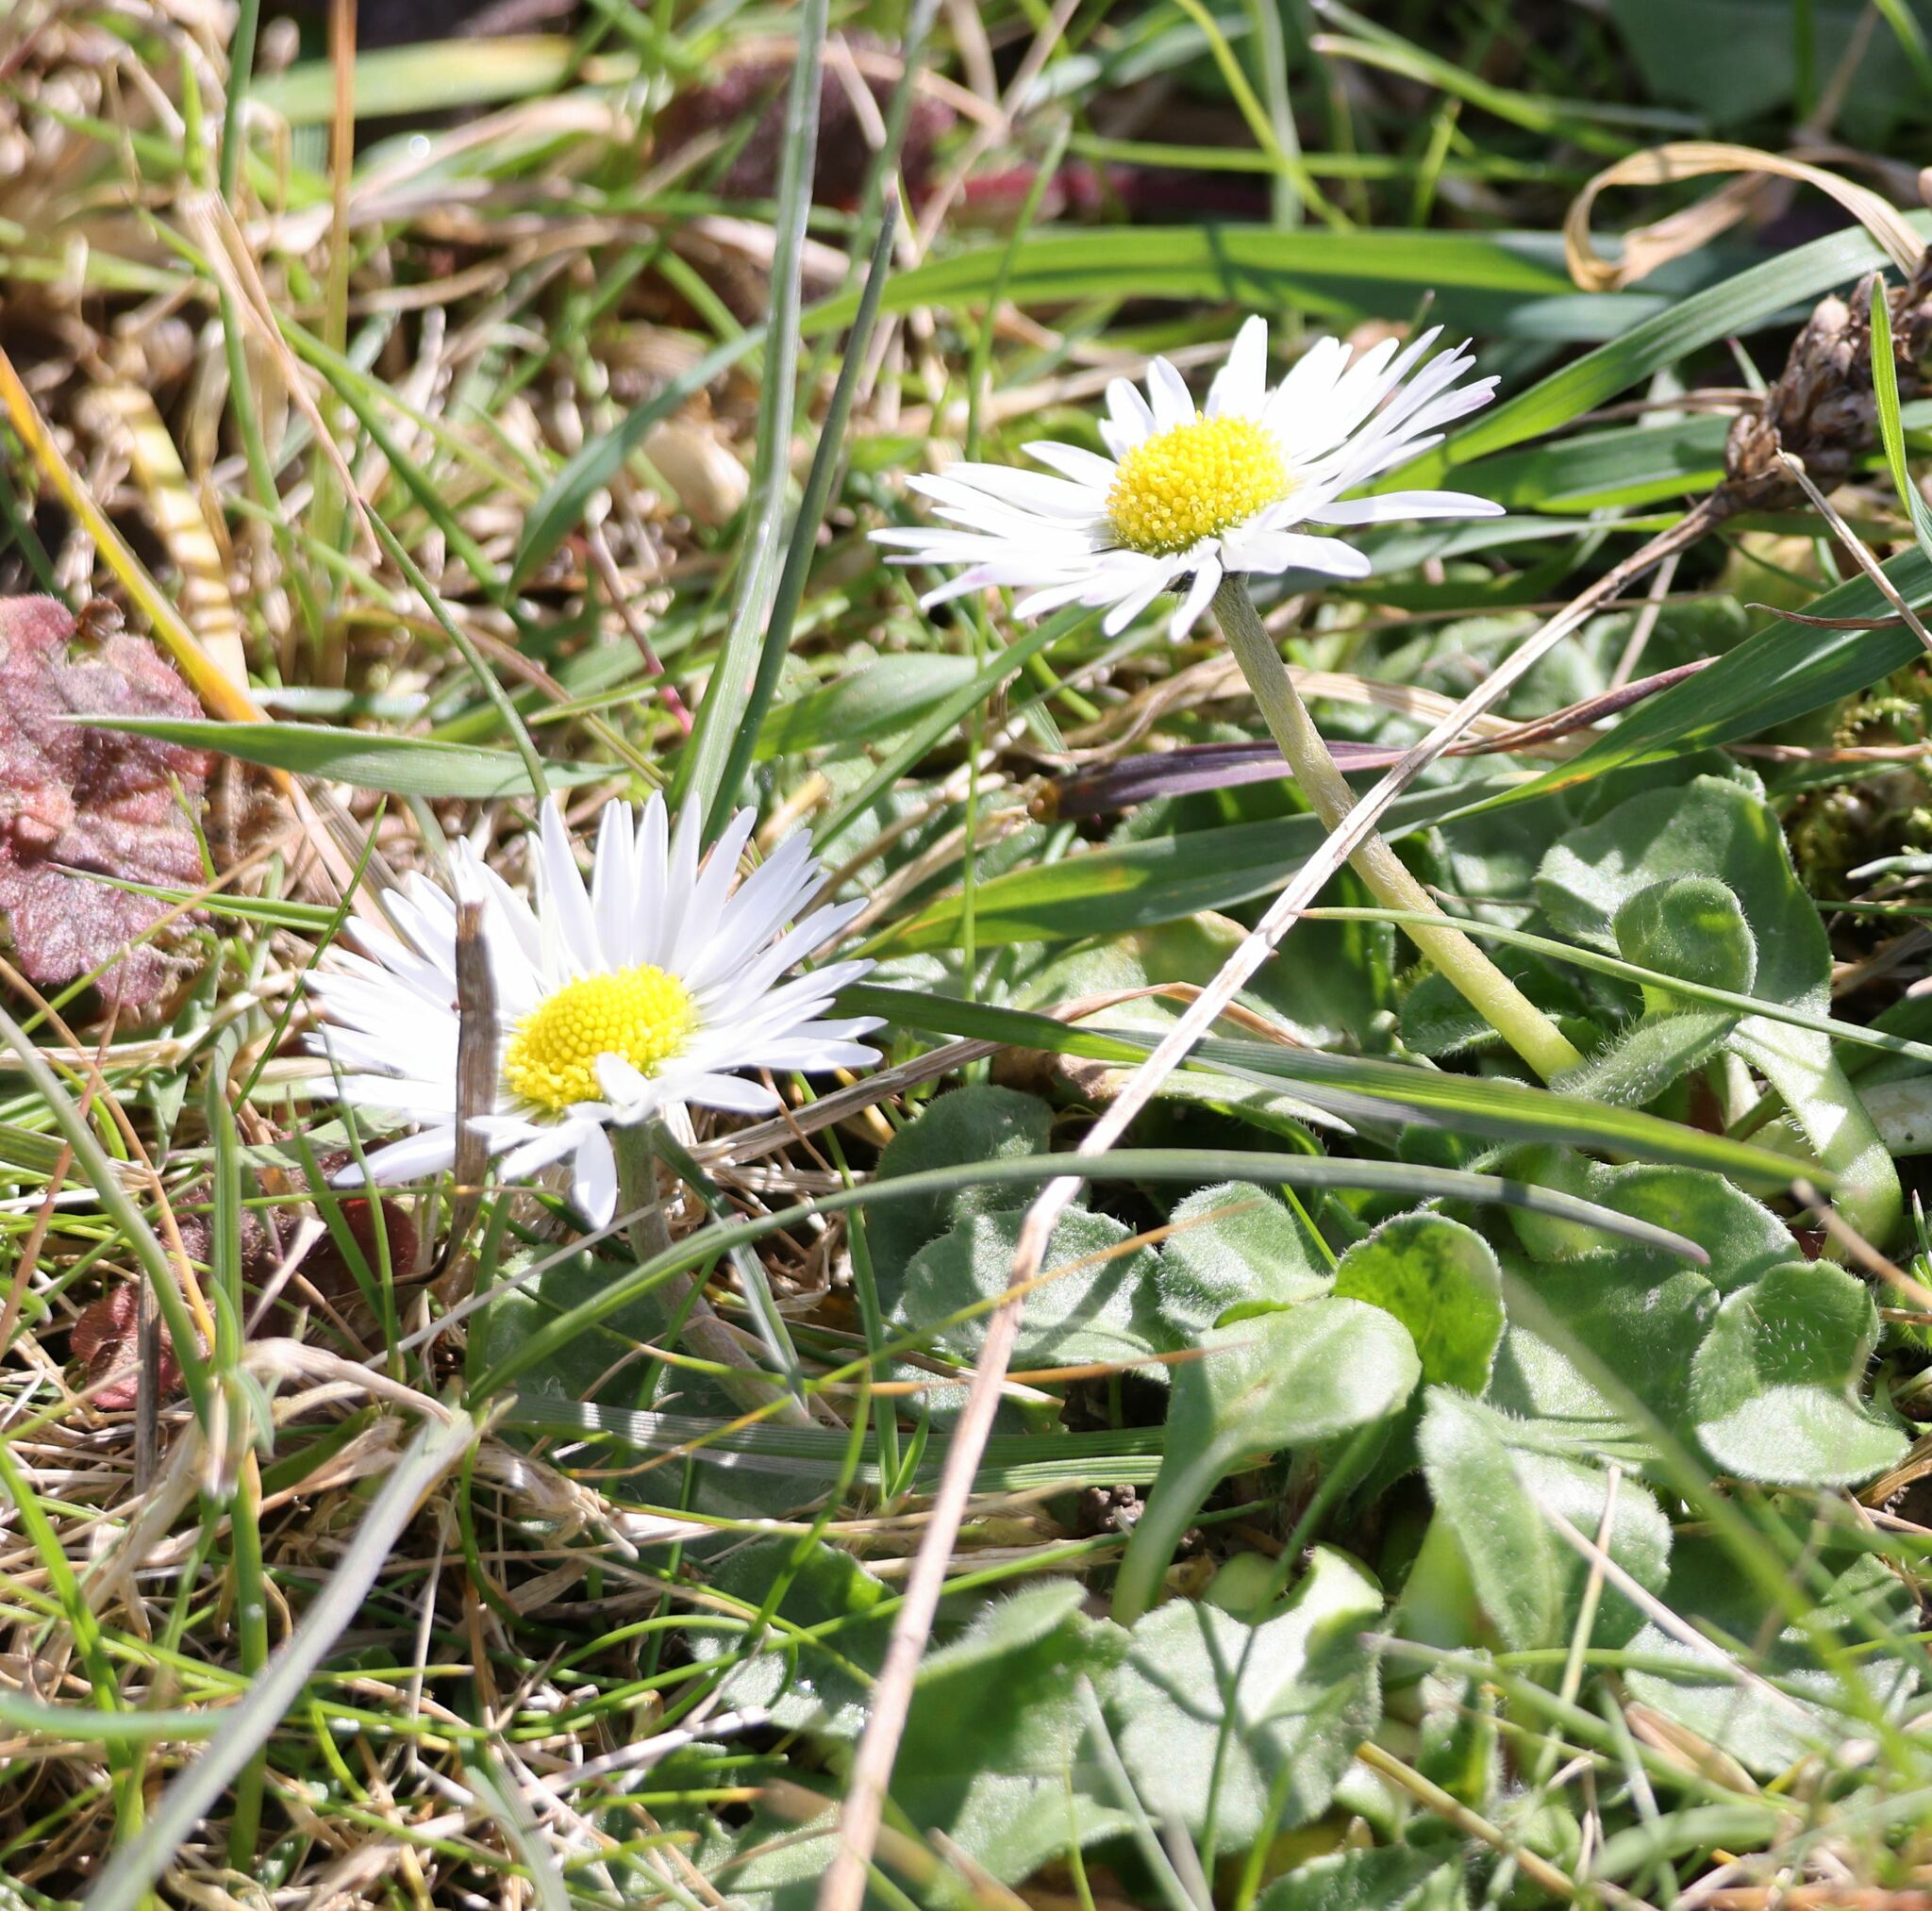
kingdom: Plantae
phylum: Tracheophyta
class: Magnoliopsida
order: Asterales
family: Asteraceae
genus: Bellis
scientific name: Bellis perennis
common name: Lawndaisy
